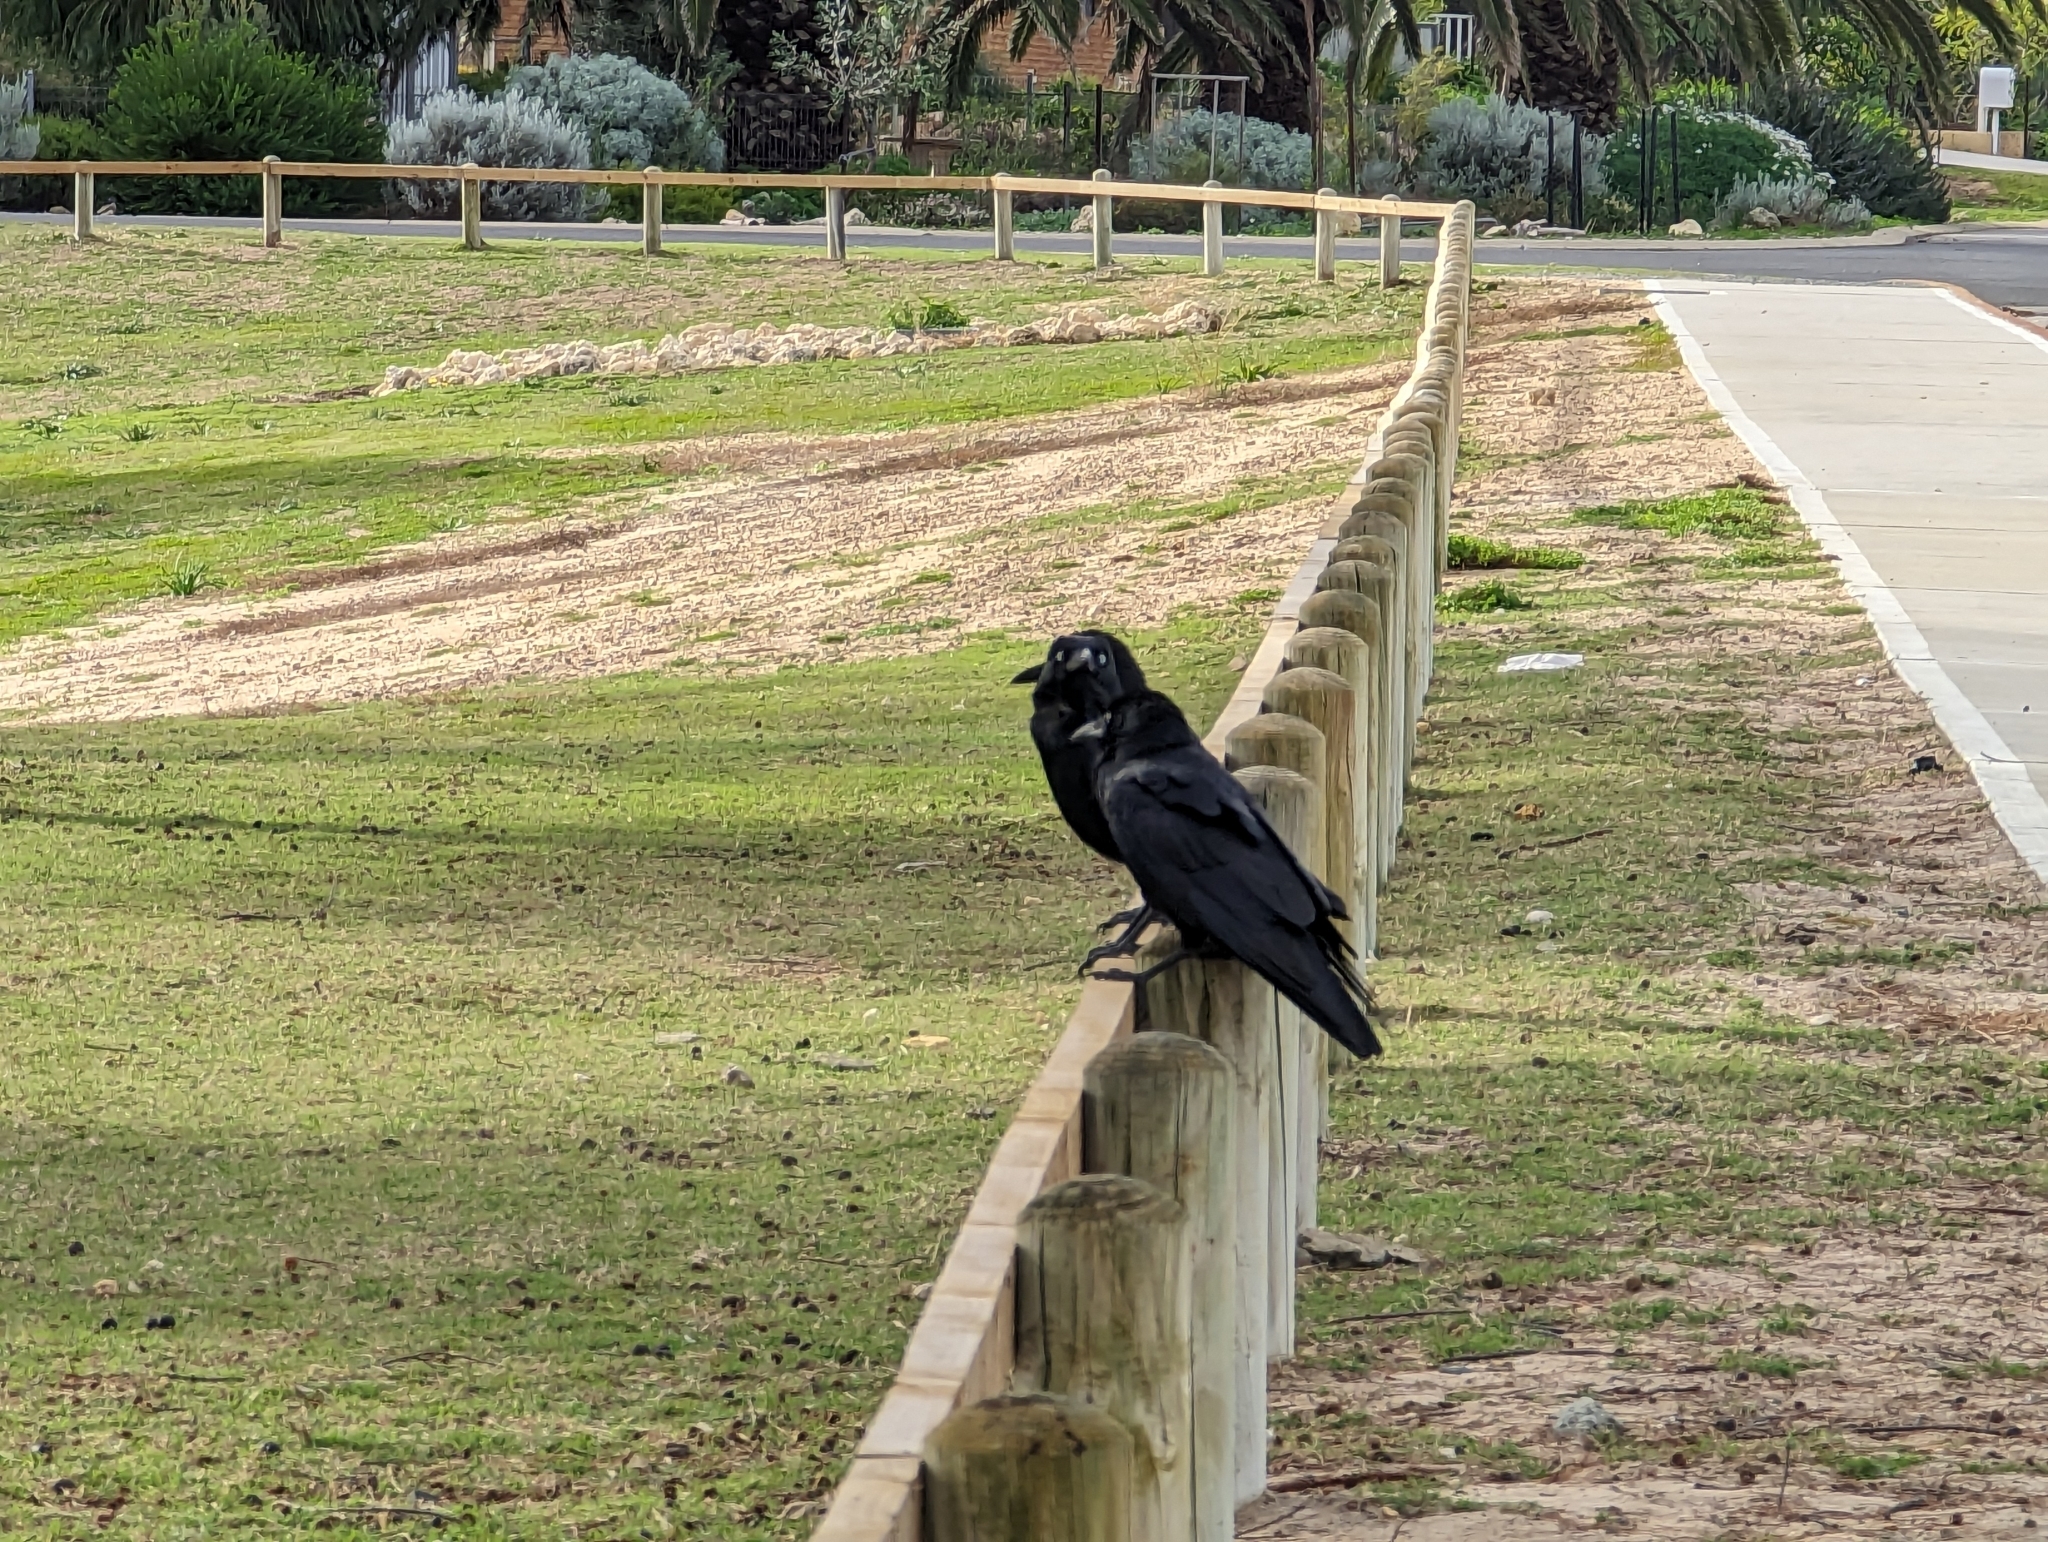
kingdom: Animalia
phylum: Chordata
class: Aves
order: Passeriformes
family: Corvidae
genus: Corvus
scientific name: Corvus coronoides
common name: Australian raven
